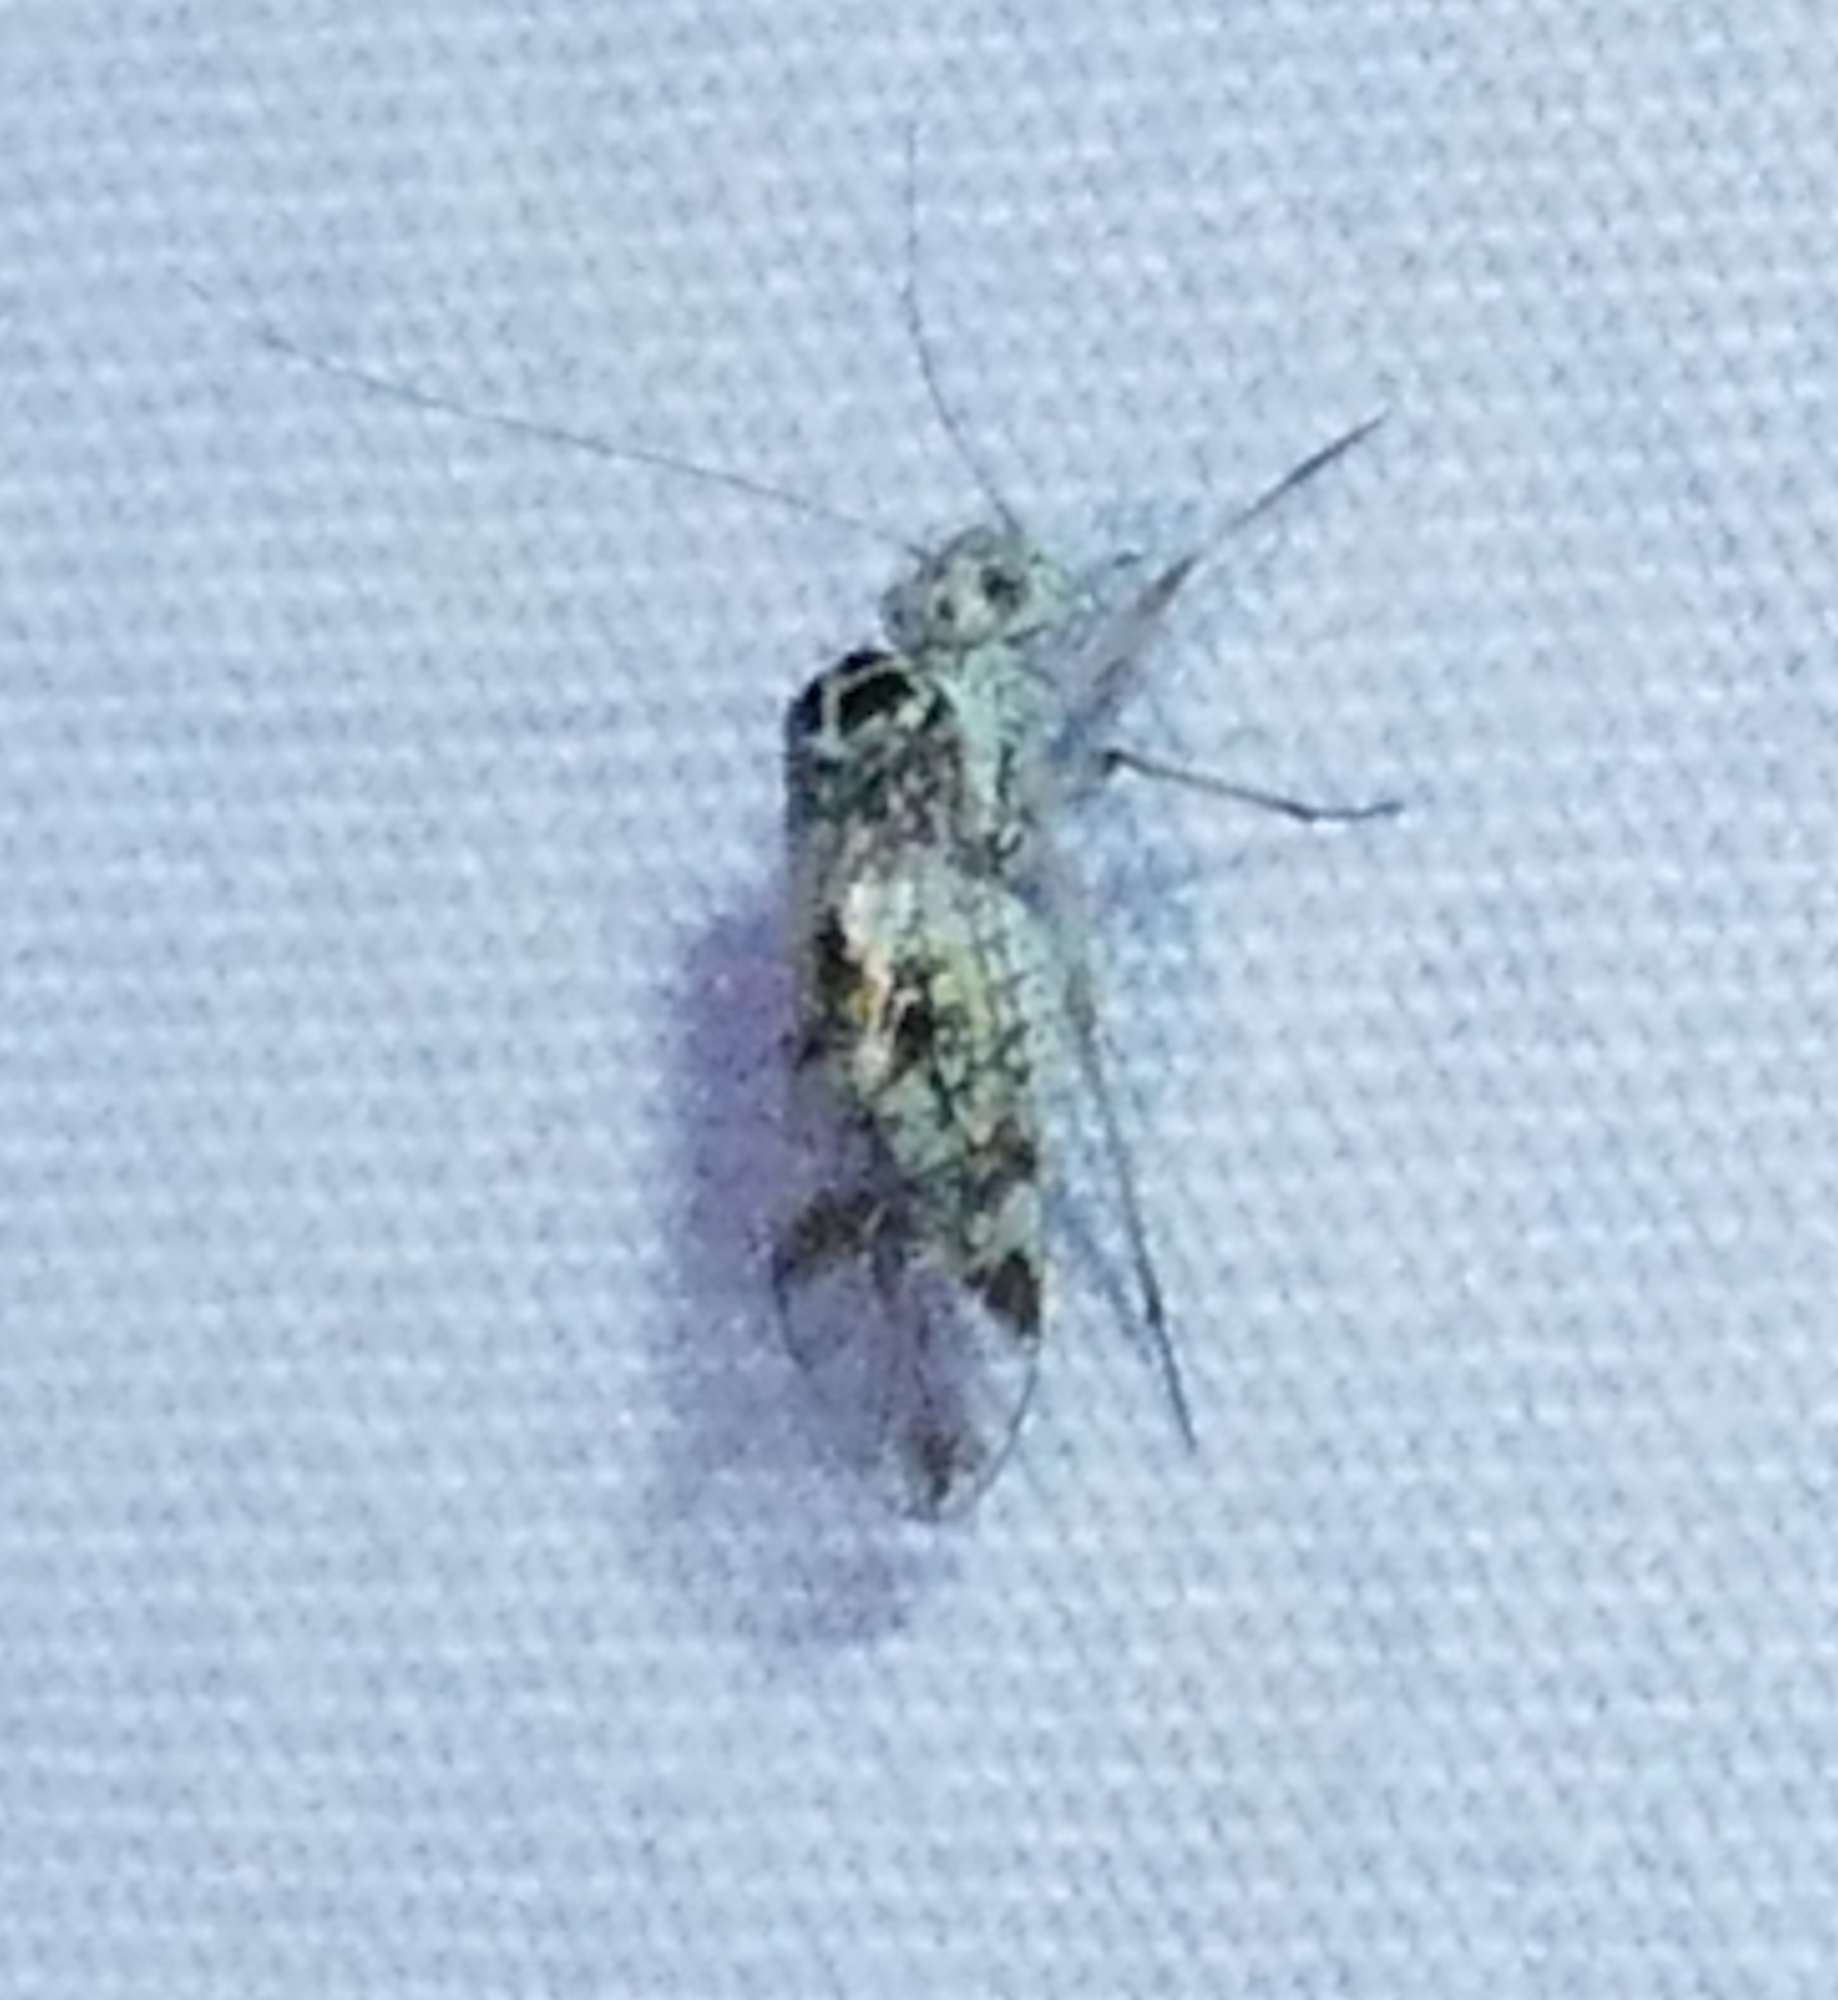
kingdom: Animalia
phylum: Arthropoda
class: Insecta
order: Psocodea
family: Psocidae
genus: Metylophorus
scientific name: Metylophorus novaescotiae
